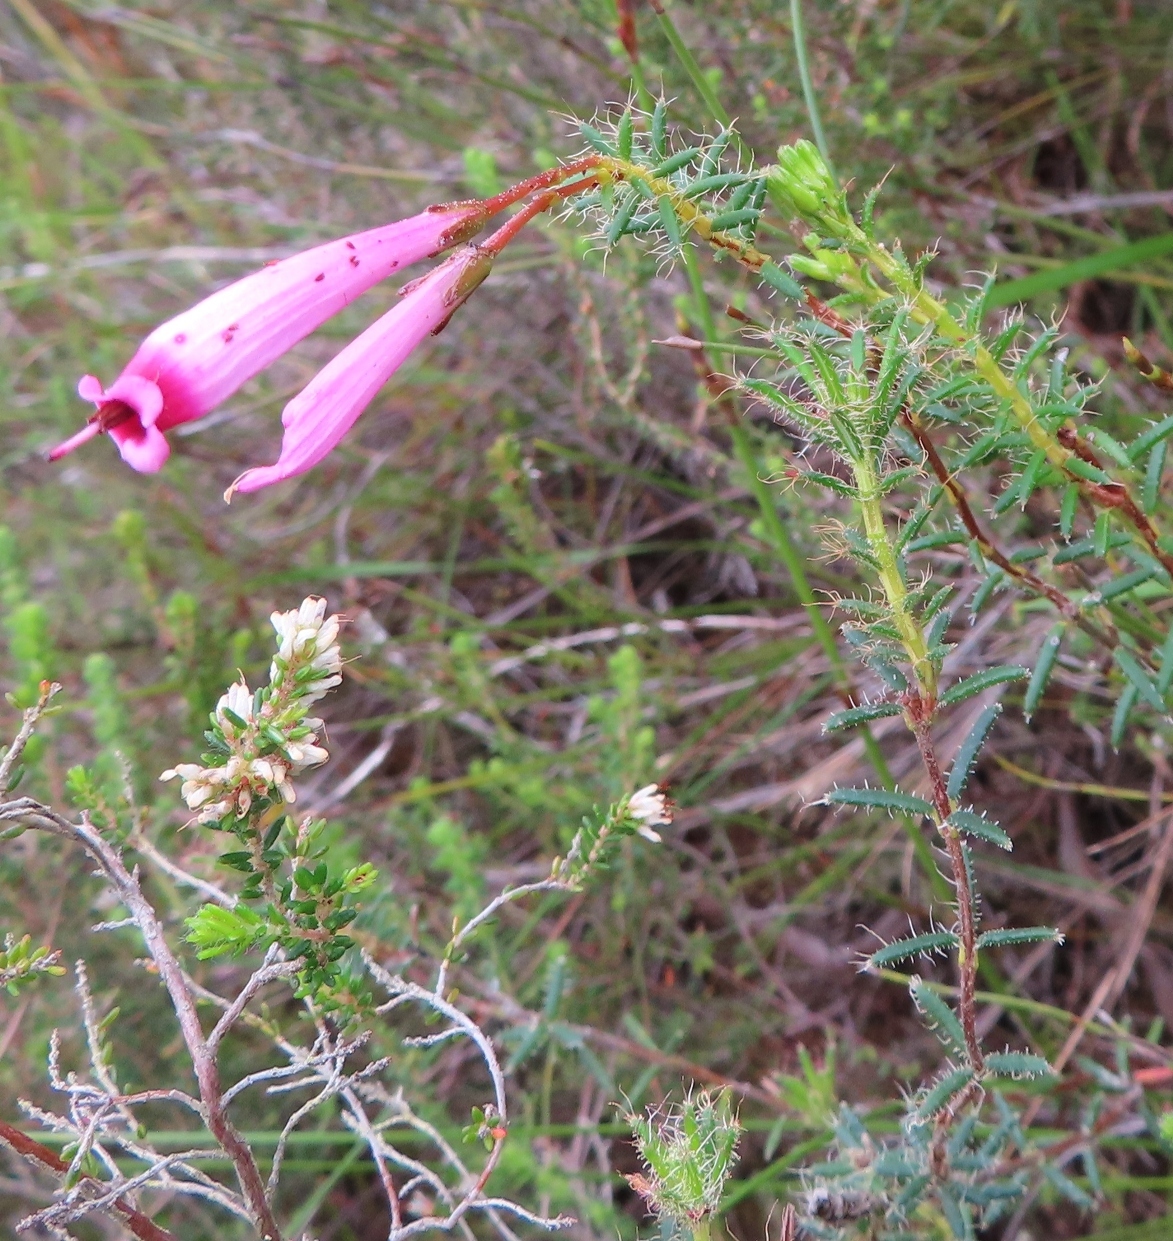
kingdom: Plantae
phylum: Tracheophyta
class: Magnoliopsida
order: Ericales
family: Ericaceae
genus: Erica
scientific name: Erica embothriifolia
